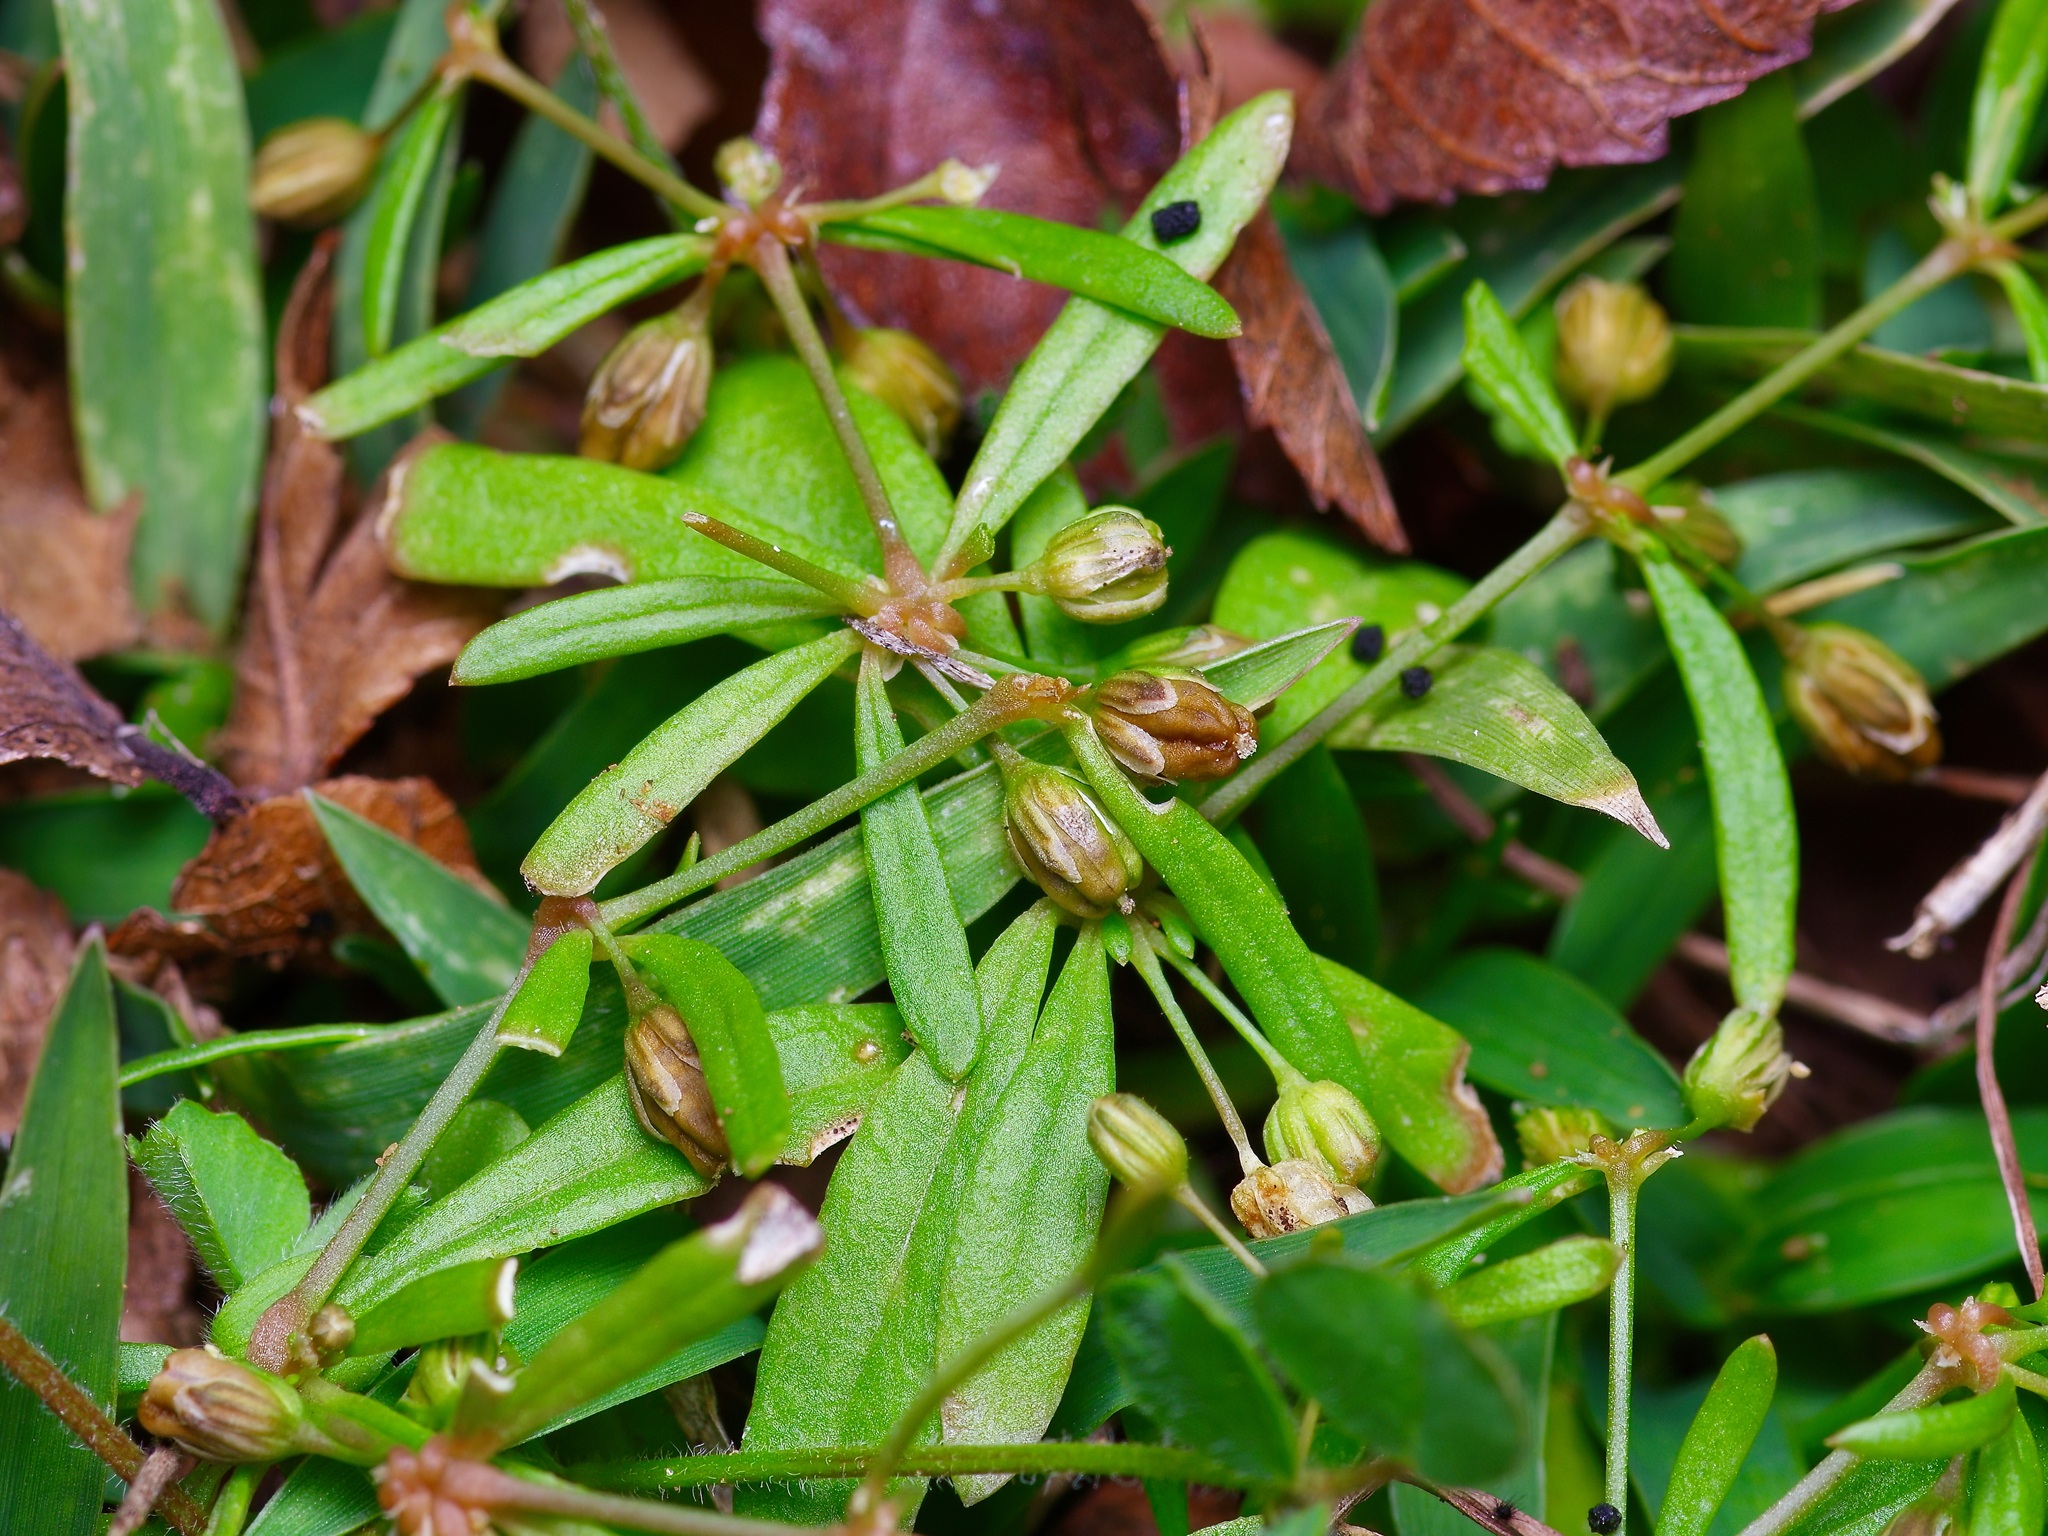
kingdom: Plantae
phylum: Tracheophyta
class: Magnoliopsida
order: Caryophyllales
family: Molluginaceae
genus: Mollugo
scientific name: Mollugo verticillata
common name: Green carpetweed
